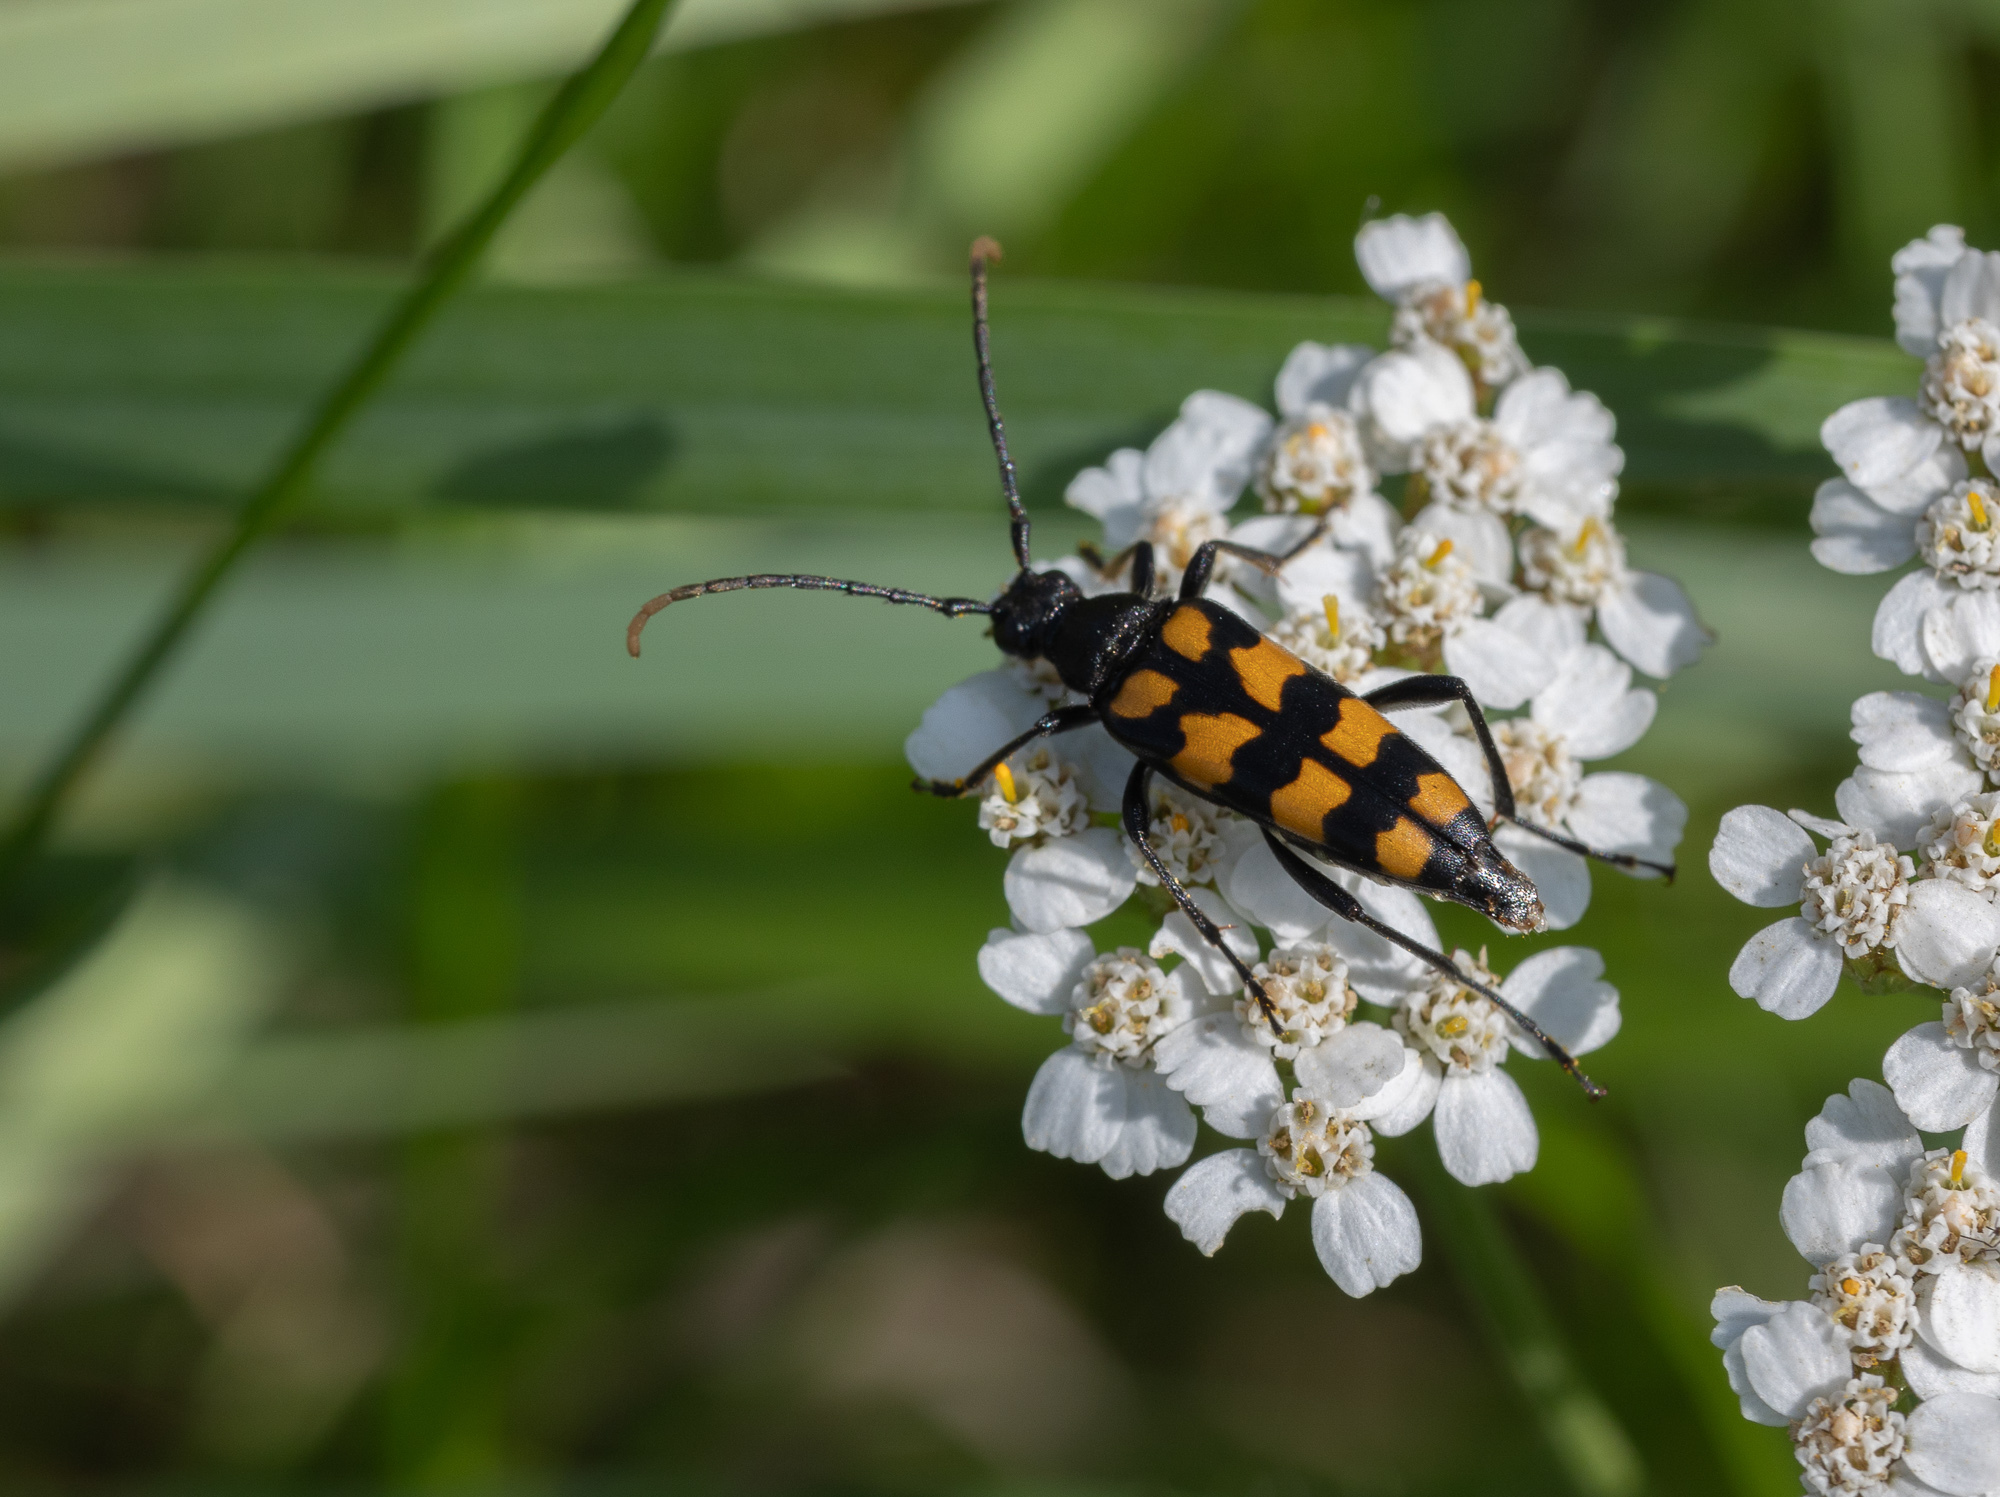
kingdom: Animalia
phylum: Arthropoda
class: Insecta
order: Coleoptera
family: Cerambycidae
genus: Leptura
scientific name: Leptura quadrifasciata
